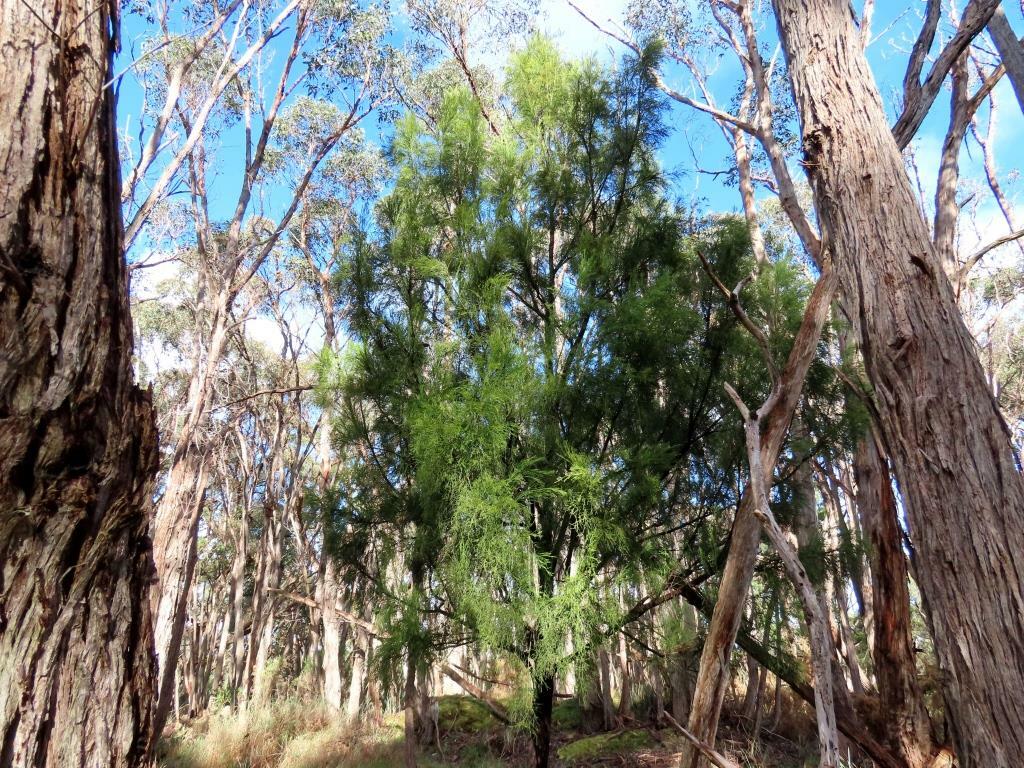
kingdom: Plantae
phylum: Tracheophyta
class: Magnoliopsida
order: Santalales
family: Santalaceae
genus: Exocarpos
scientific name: Exocarpos cupressiformis
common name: Cherry ballart
